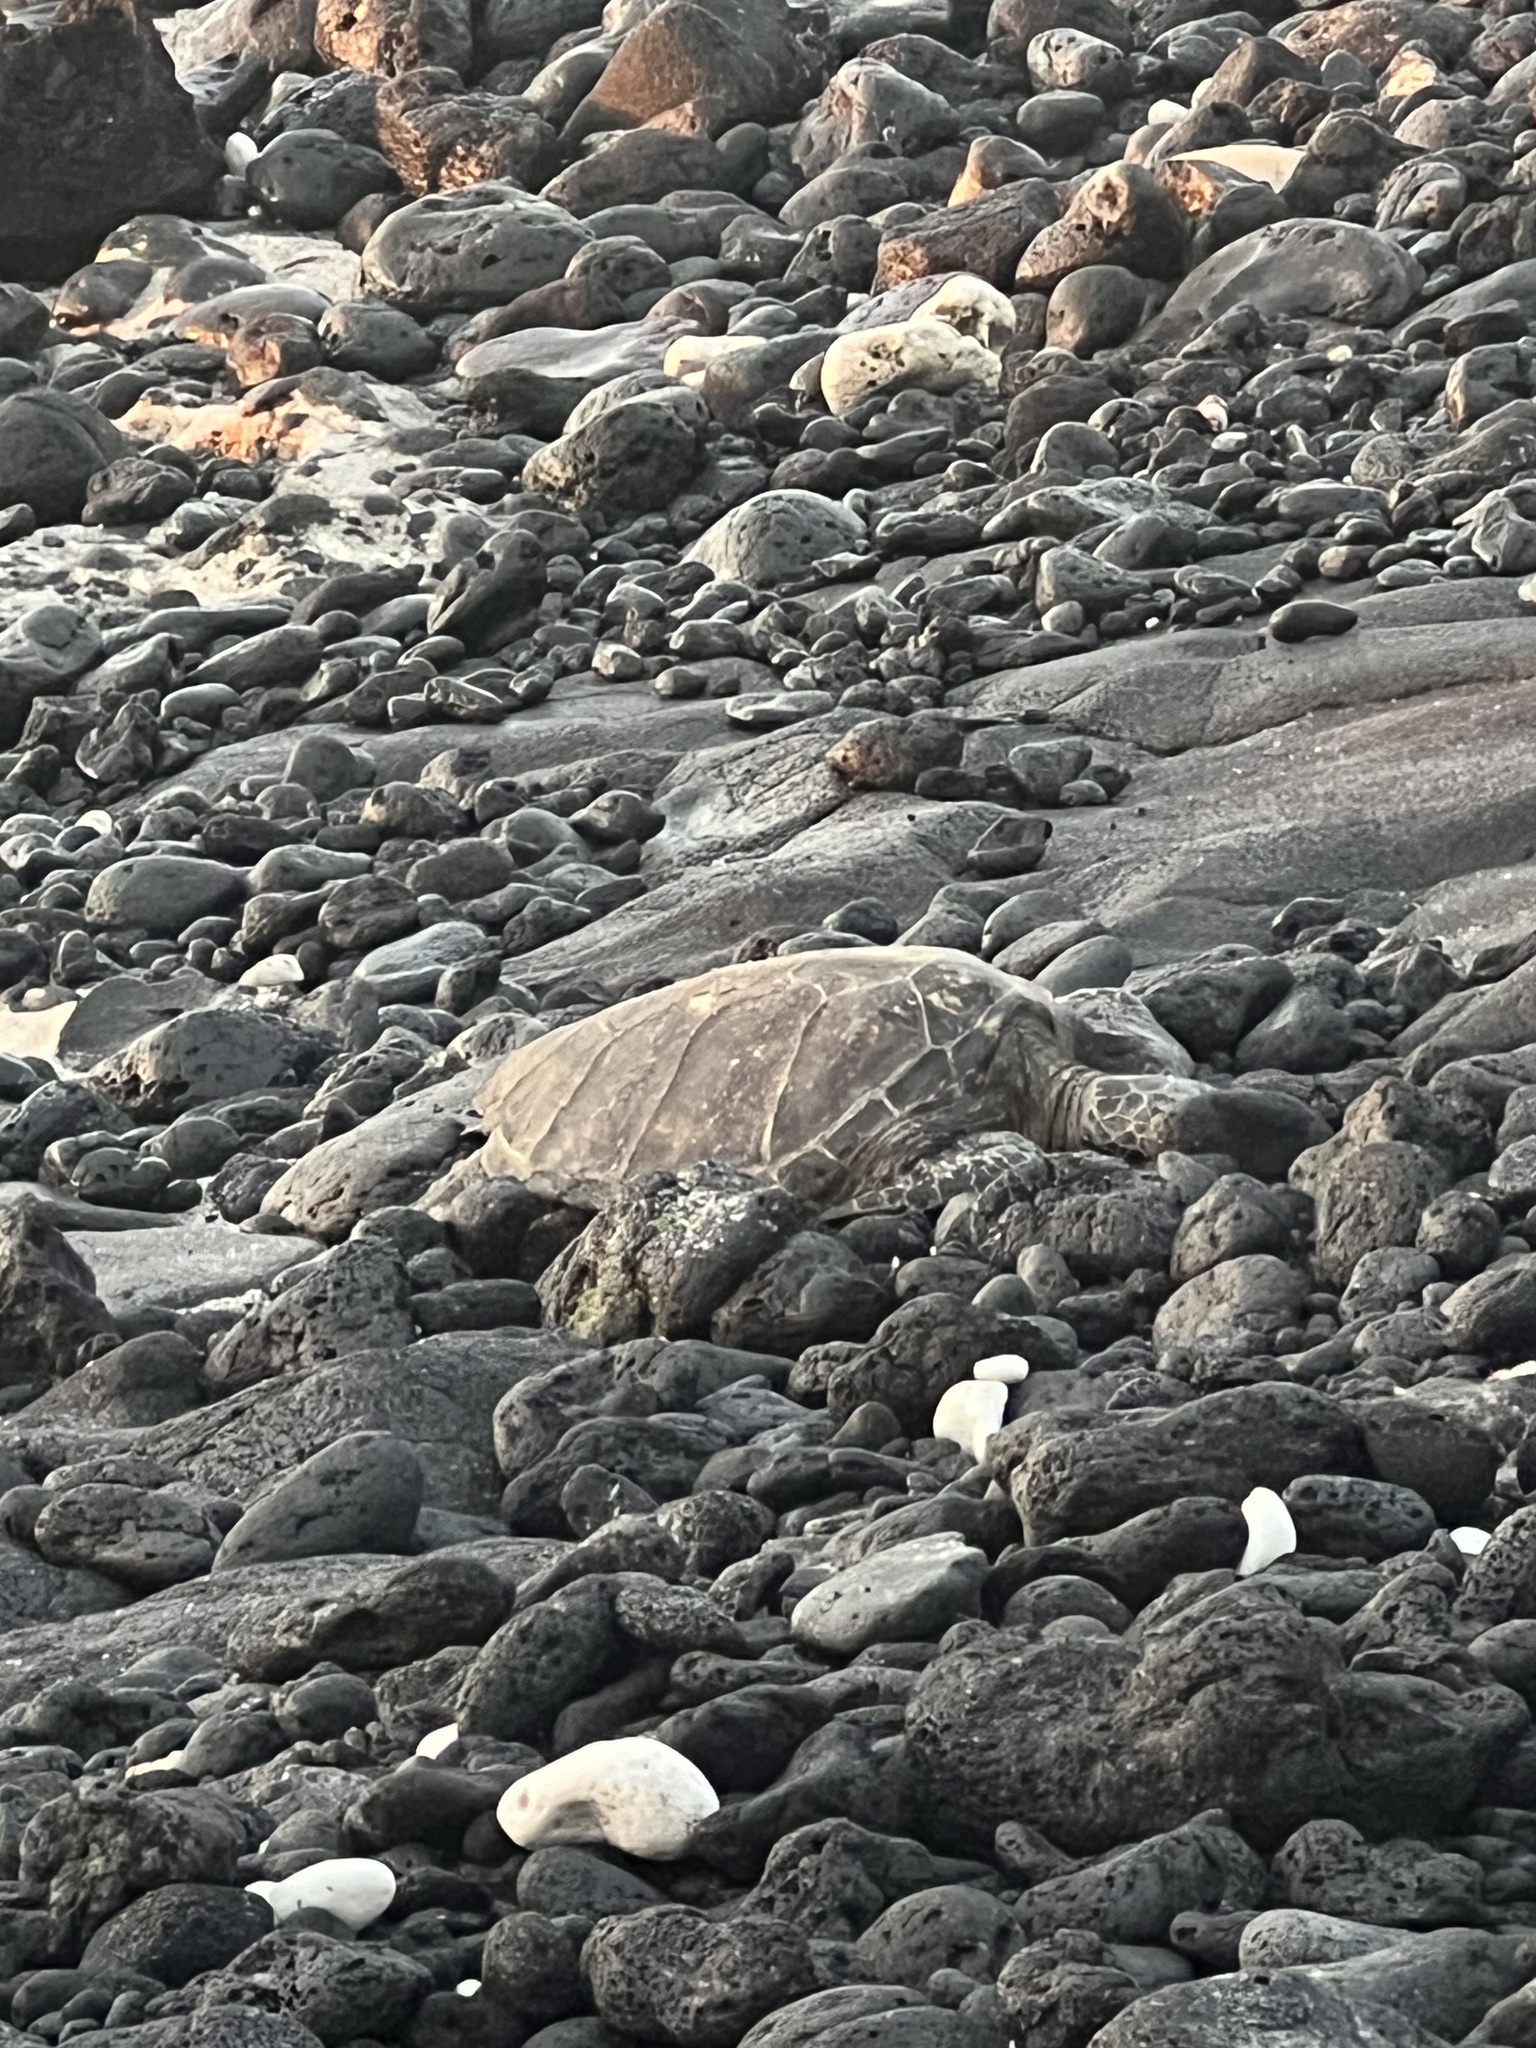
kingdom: Animalia
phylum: Chordata
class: Testudines
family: Cheloniidae
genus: Chelonia
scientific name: Chelonia mydas
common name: Green turtle
